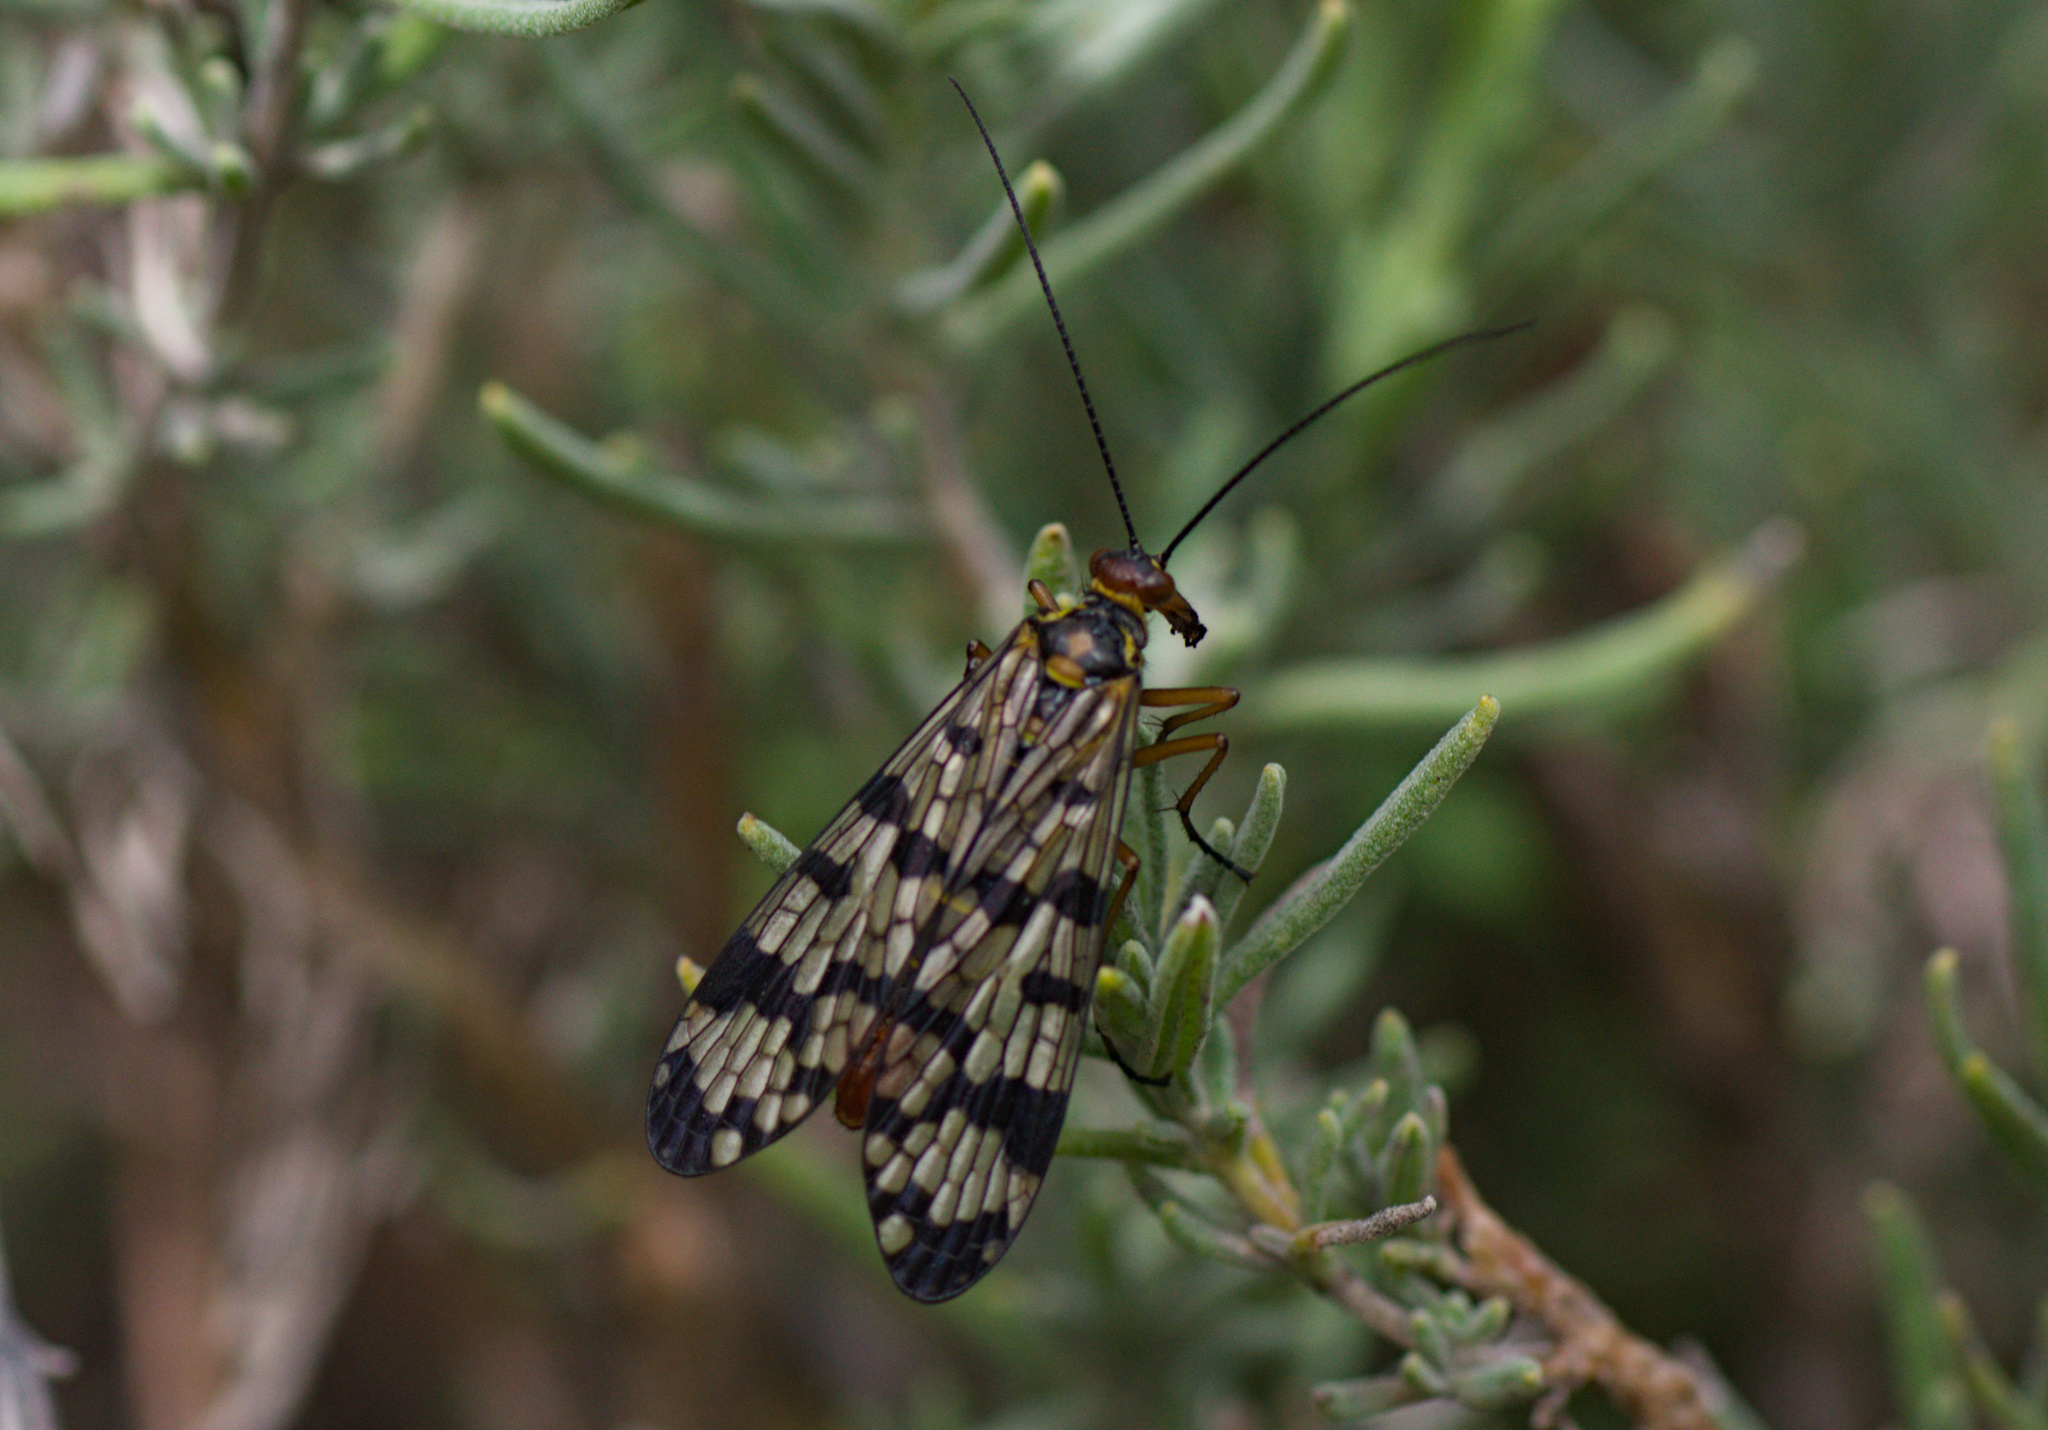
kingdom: Animalia
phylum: Arthropoda
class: Insecta
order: Mecoptera
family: Panorpidae
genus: Panorpa
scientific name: Panorpa meridionalis
